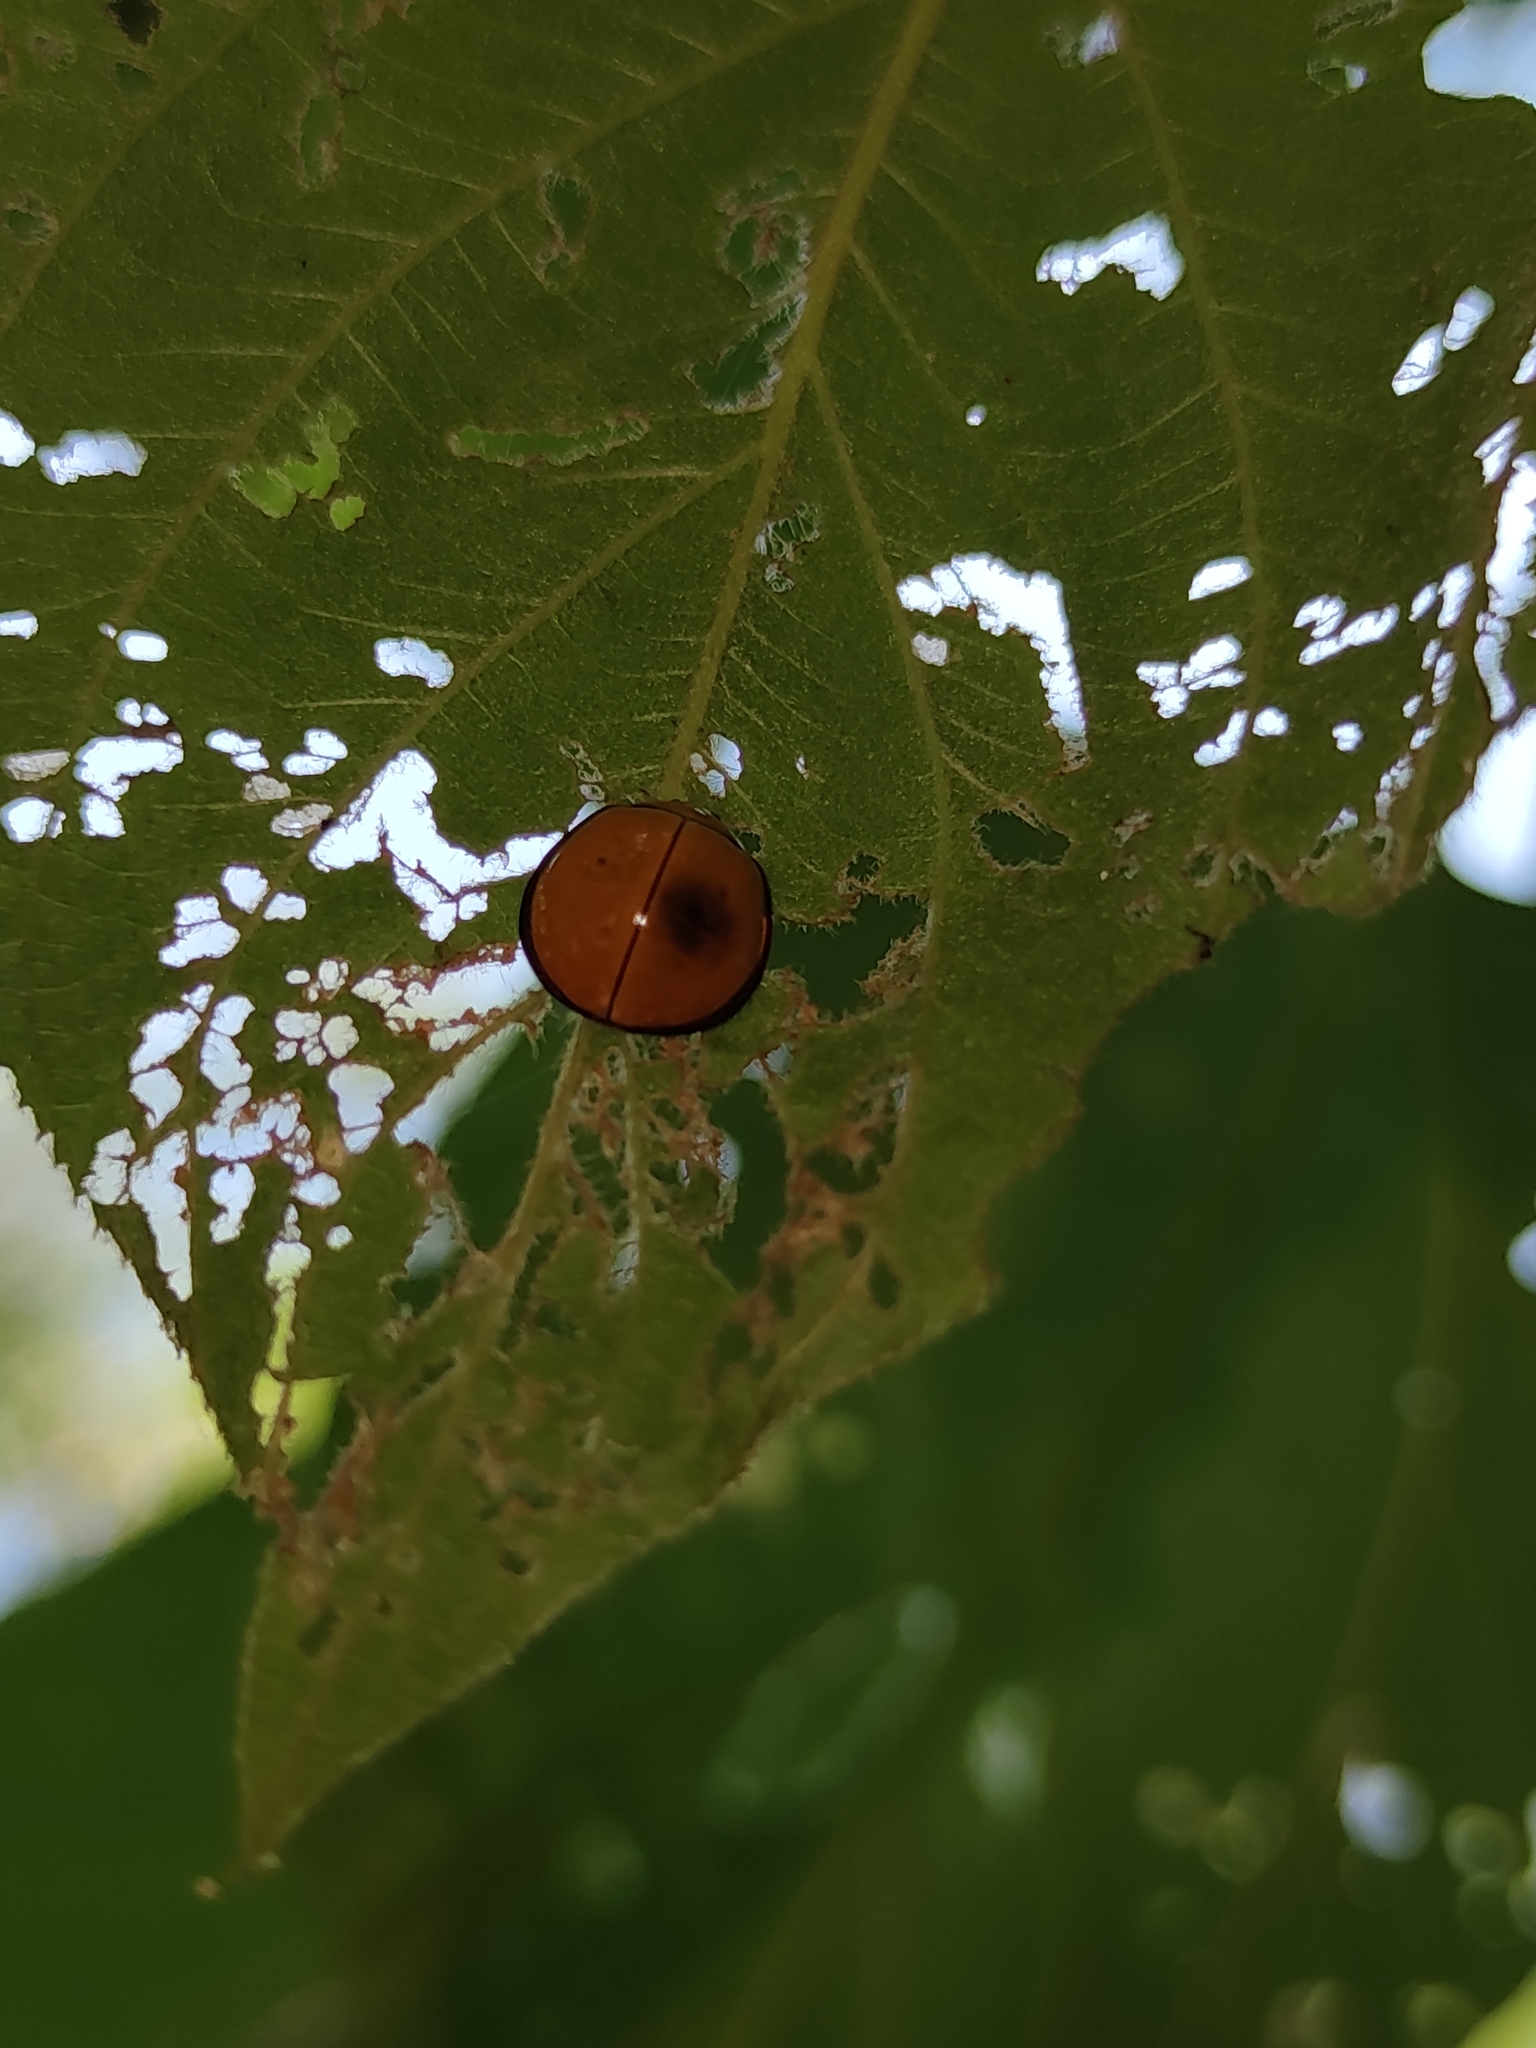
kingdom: Animalia
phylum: Arthropoda
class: Insecta
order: Coleoptera
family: Coccinellidae
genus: Neda
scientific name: Neda
